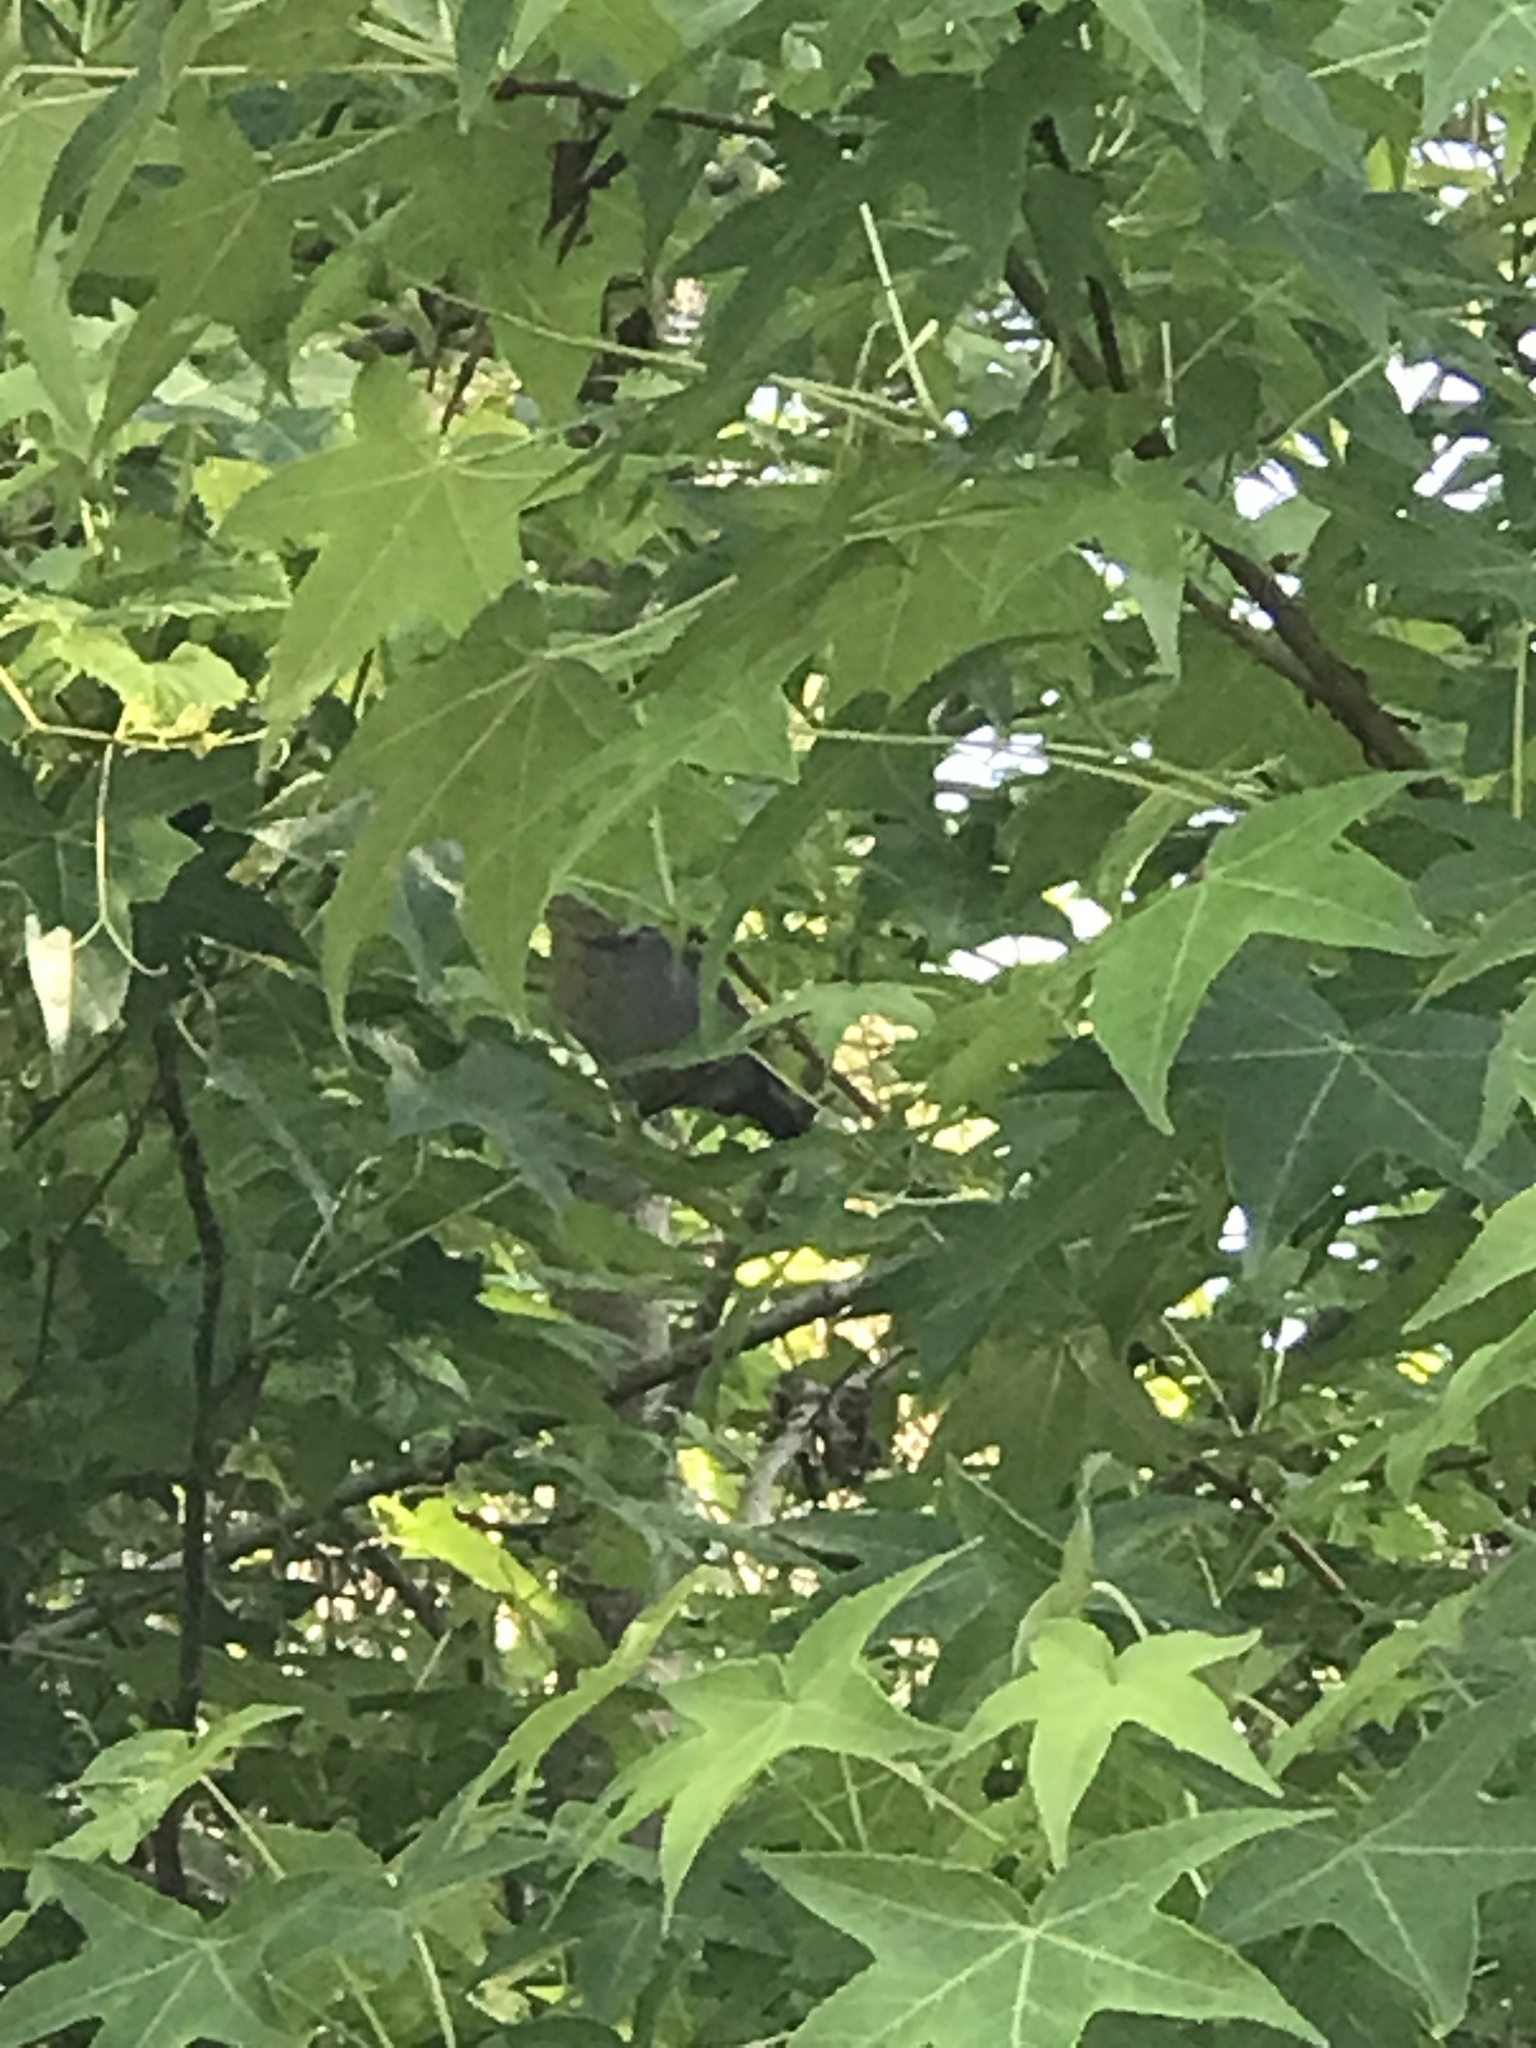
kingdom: Animalia
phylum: Chordata
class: Aves
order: Passeriformes
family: Mimidae
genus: Dumetella
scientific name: Dumetella carolinensis
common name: Gray catbird
